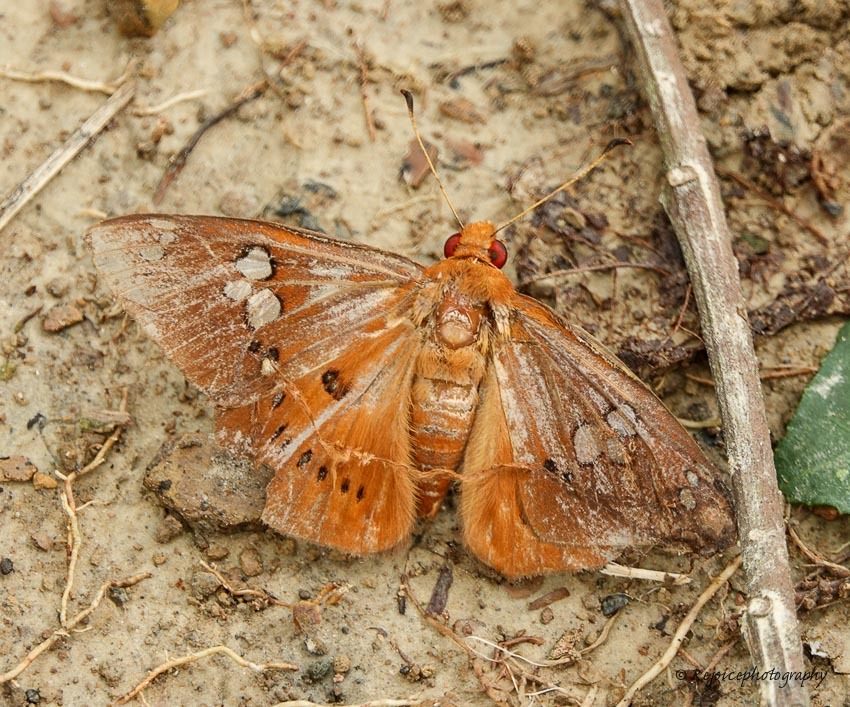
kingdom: Animalia
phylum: Arthropoda
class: Insecta
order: Lepidoptera
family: Hesperiidae
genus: Capila
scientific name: Capila phanaeus
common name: Fulvous dawnfly
